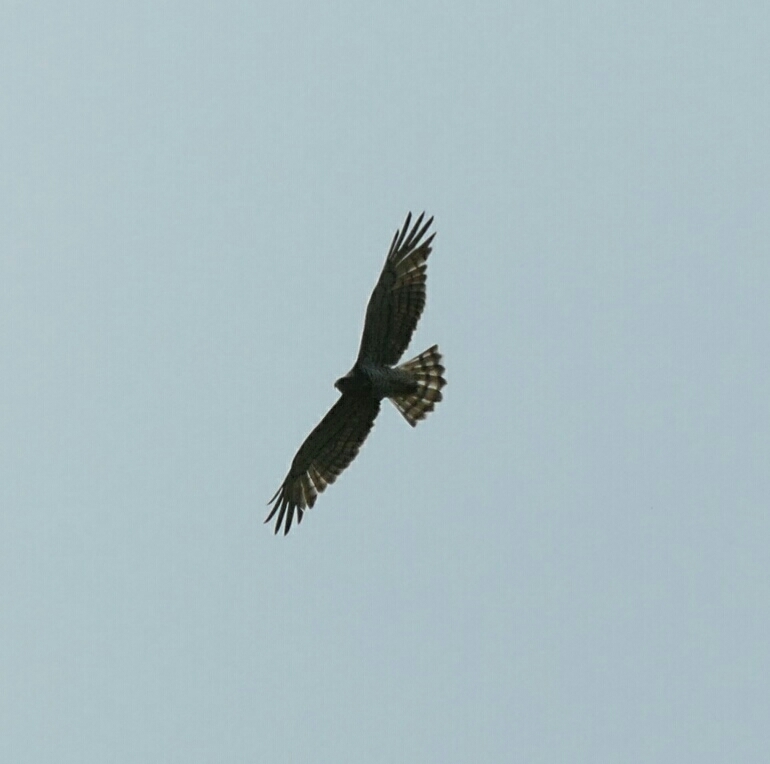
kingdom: Animalia
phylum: Chordata
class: Aves
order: Accipitriformes
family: Accipitridae
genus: Circaetus
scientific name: Circaetus gallicus
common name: Short-toed snake eagle
